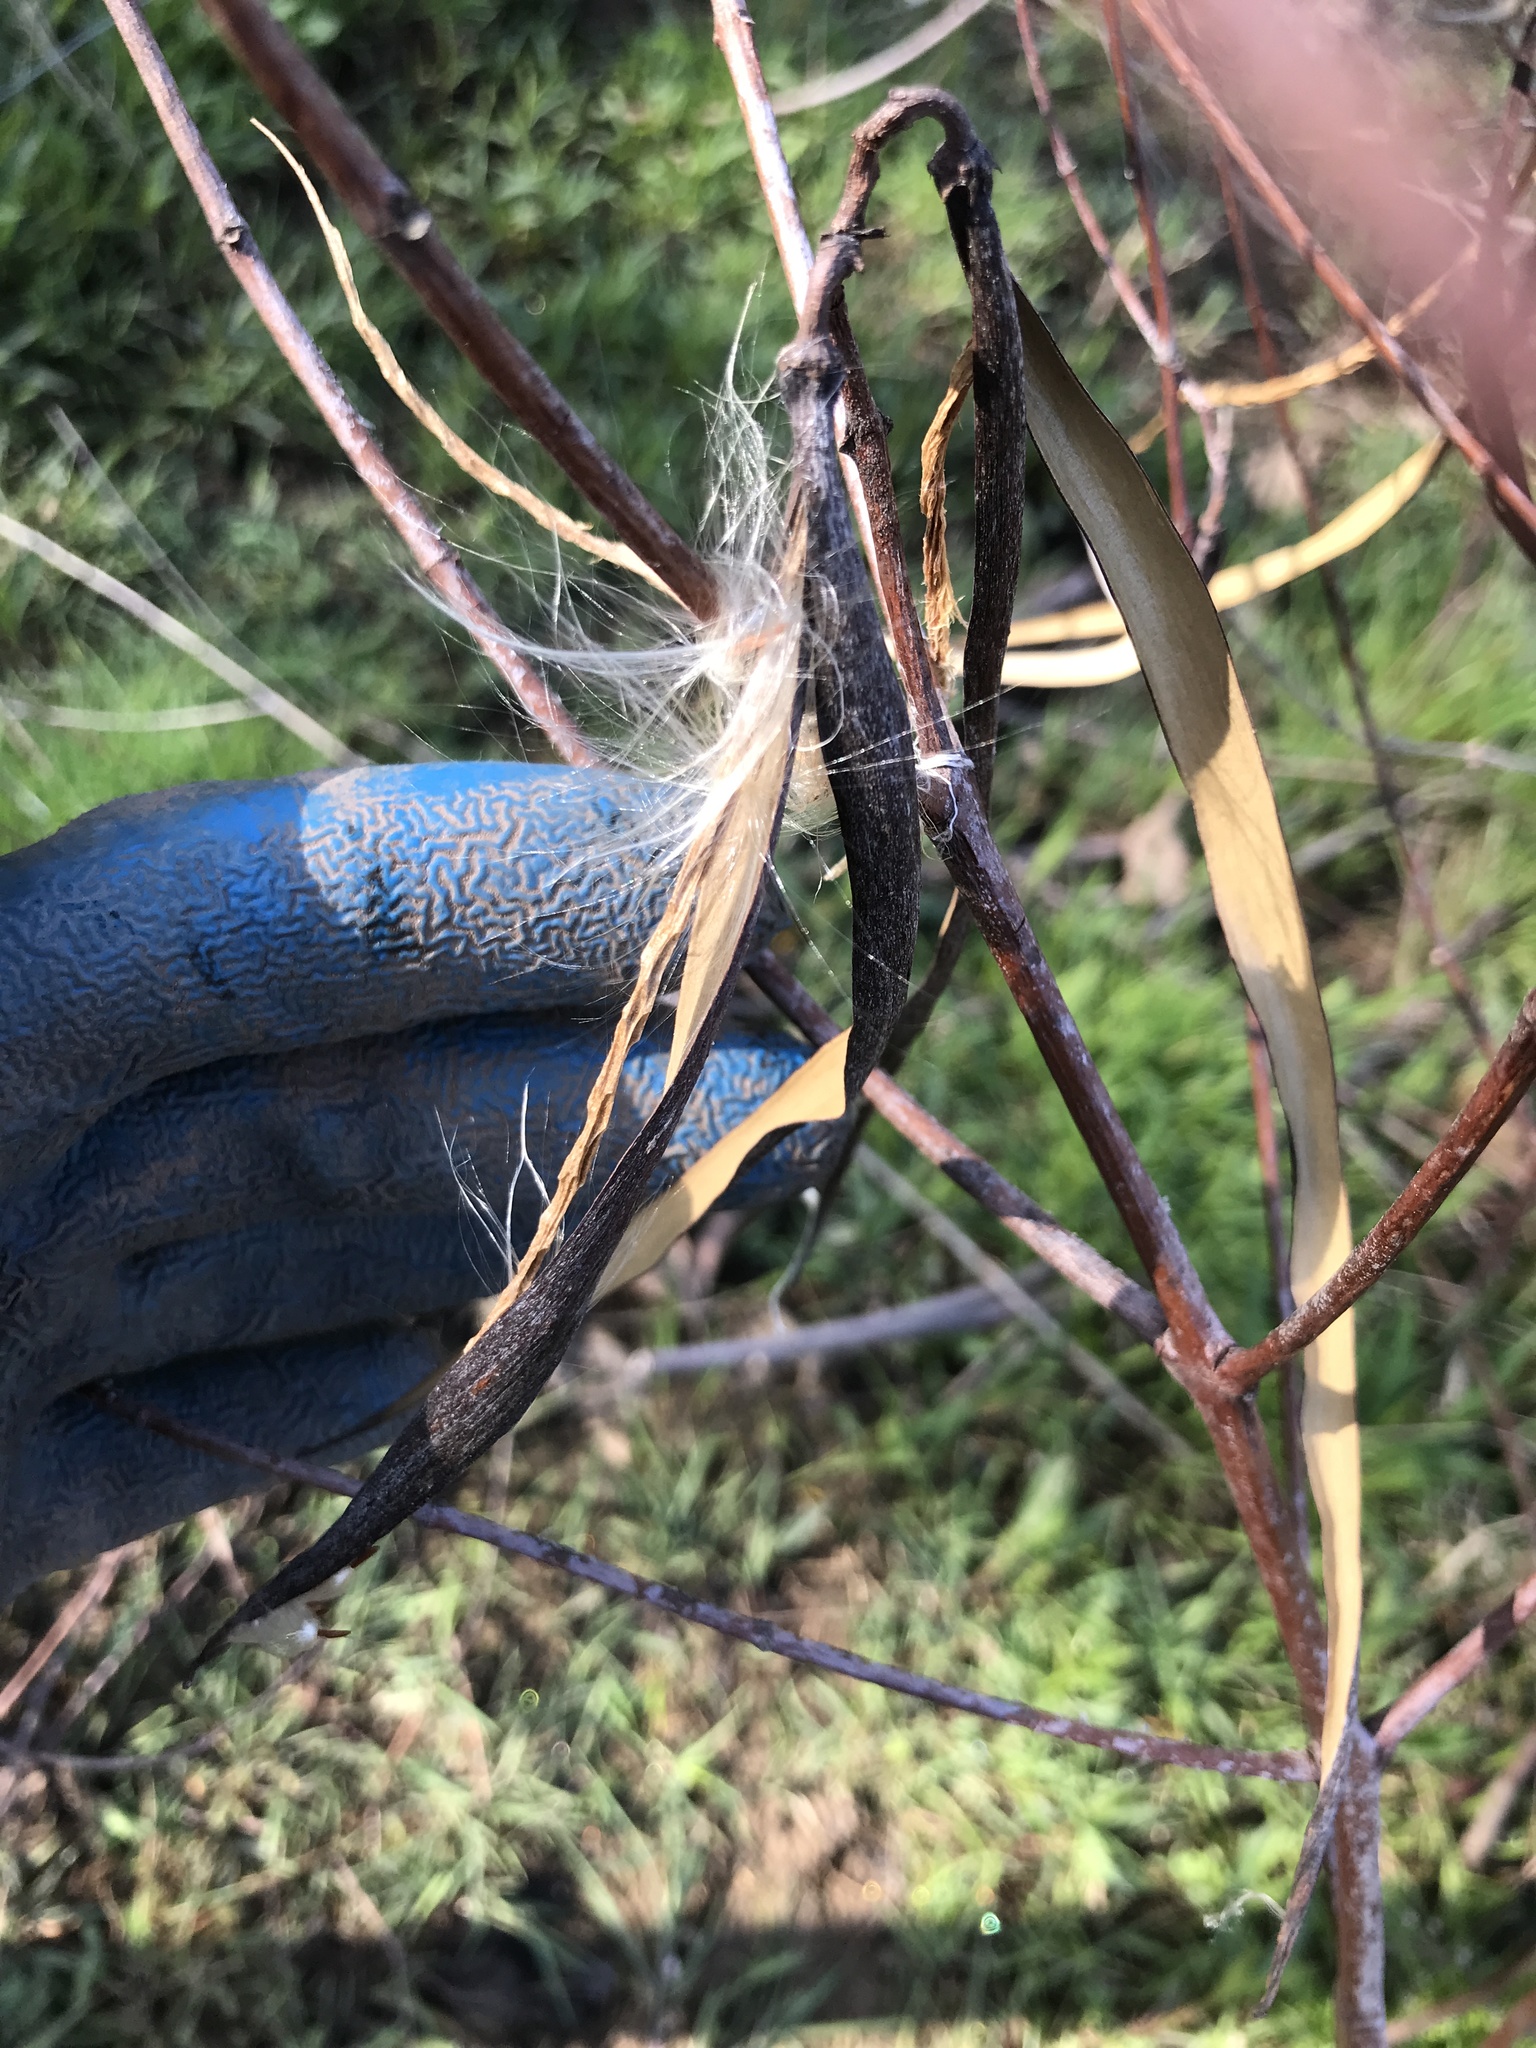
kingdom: Plantae
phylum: Tracheophyta
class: Magnoliopsida
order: Gentianales
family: Apocynaceae
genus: Apocynum
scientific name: Apocynum cannabinum
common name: Hemp dogbane
